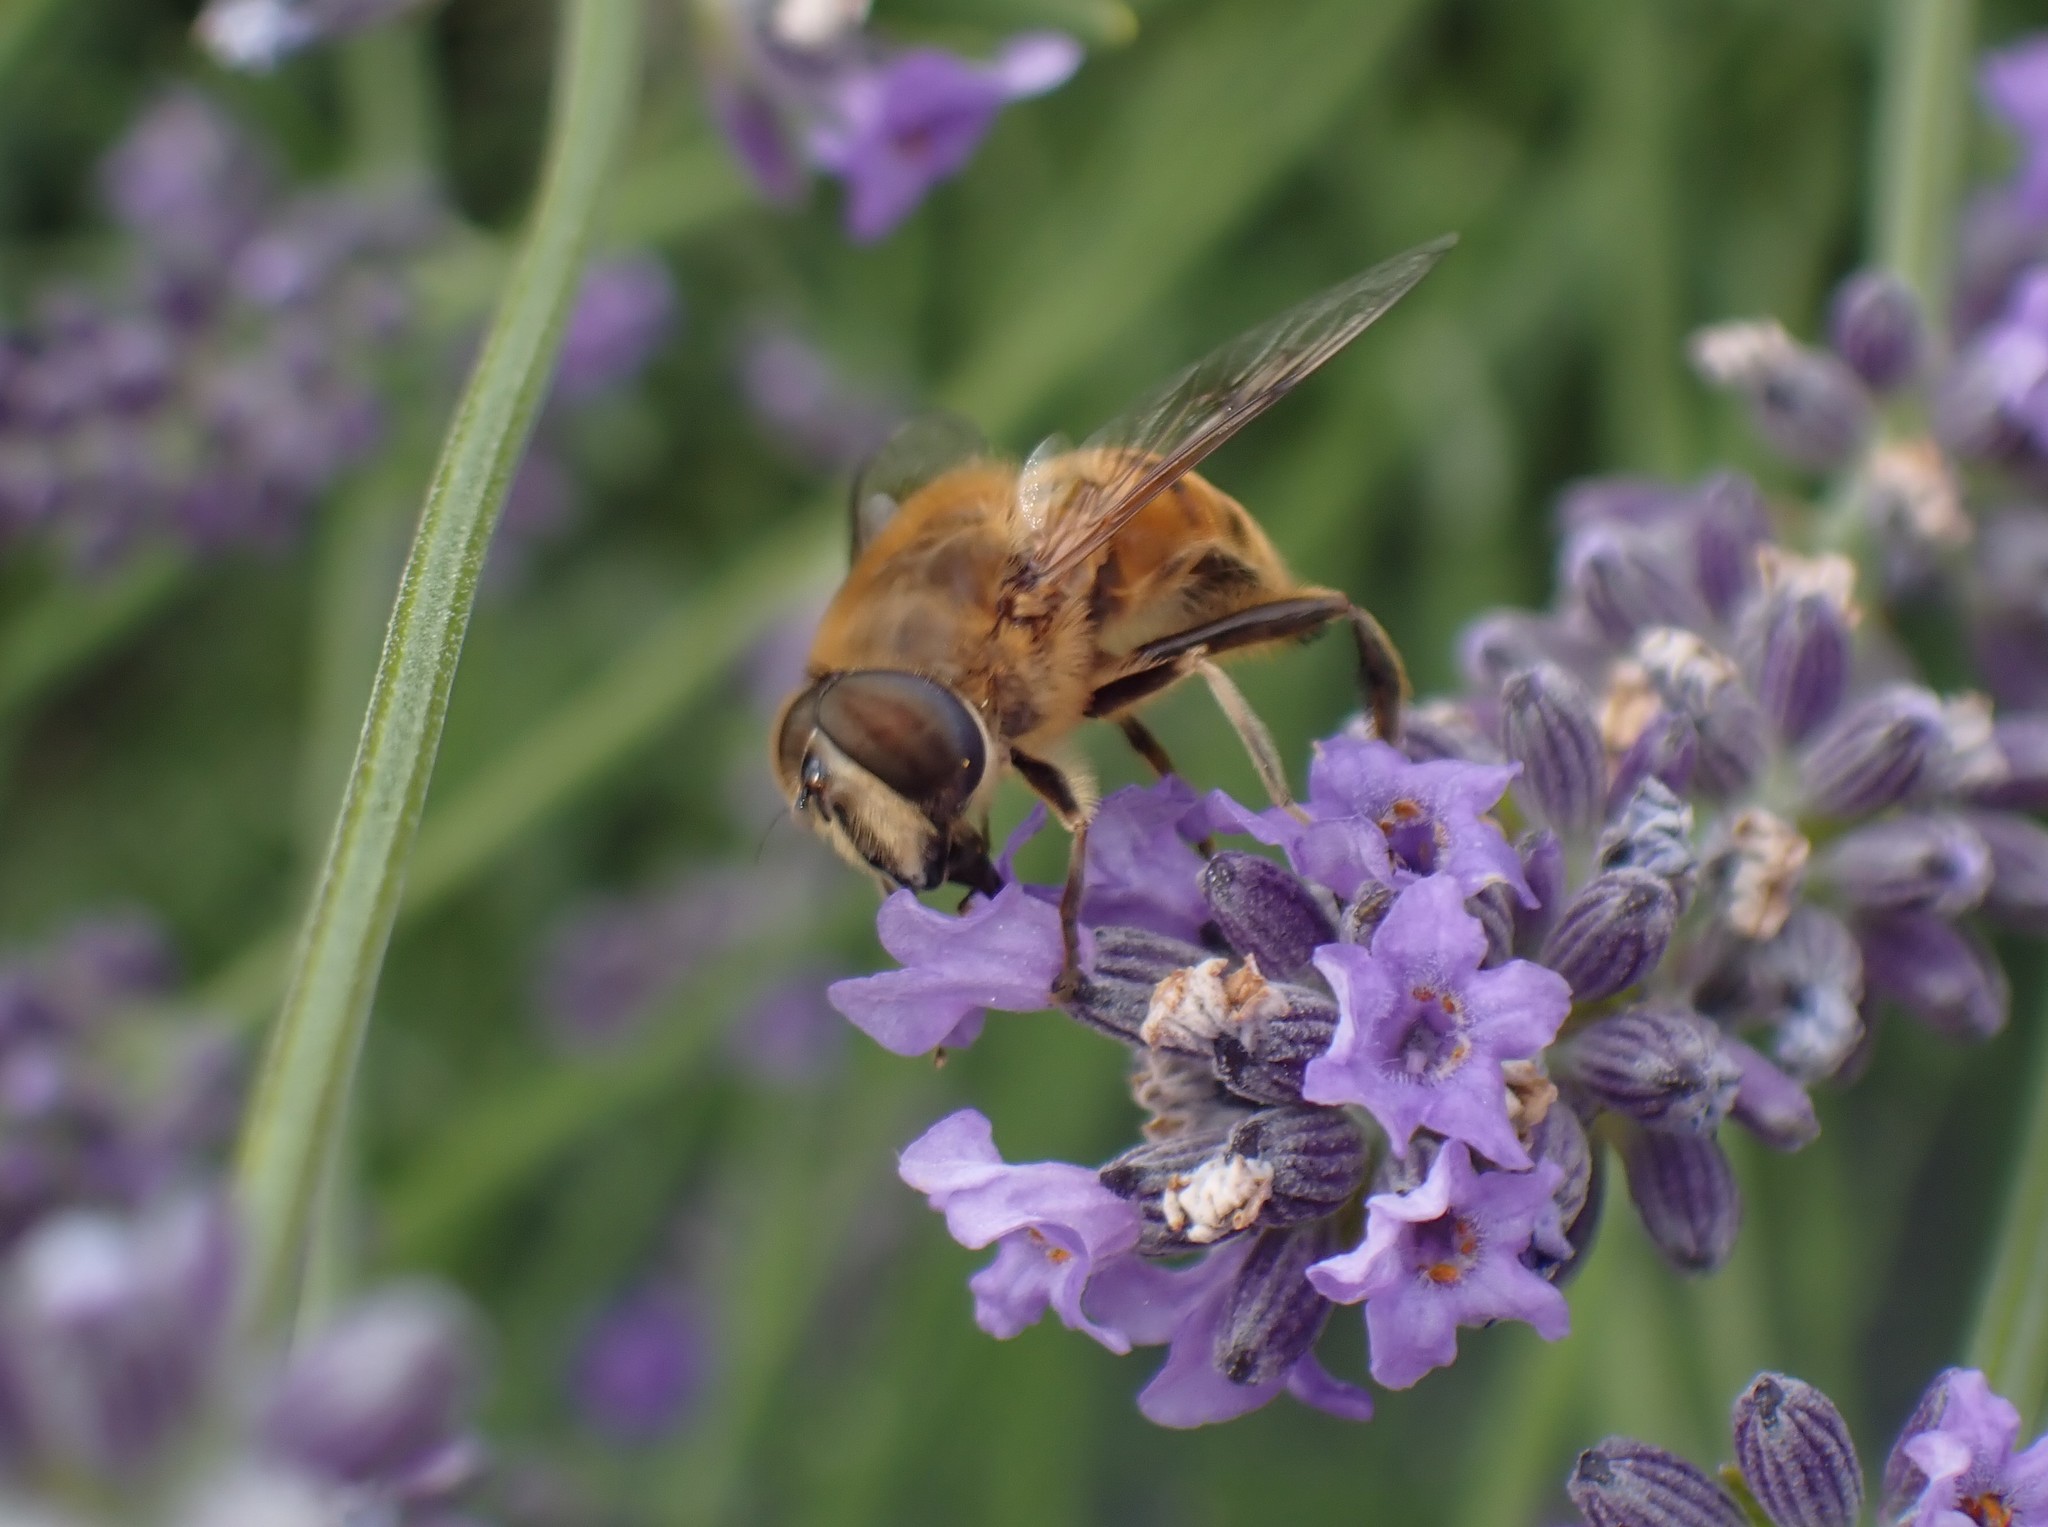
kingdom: Animalia
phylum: Arthropoda
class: Insecta
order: Diptera
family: Syrphidae
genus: Eristalis
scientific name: Eristalis tenax
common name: Drone fly
